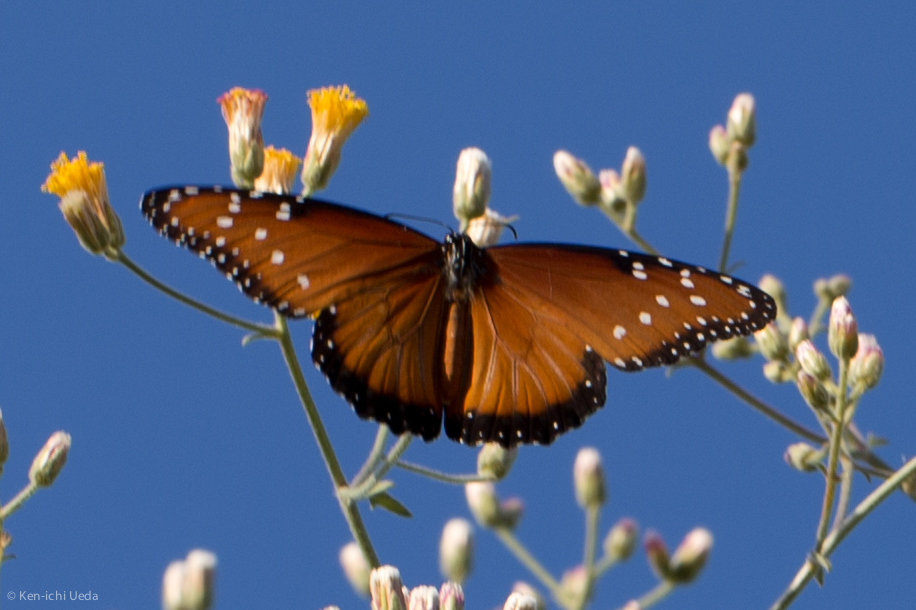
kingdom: Animalia
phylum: Arthropoda
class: Insecta
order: Lepidoptera
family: Nymphalidae
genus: Danaus
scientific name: Danaus gilippus
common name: Queen
